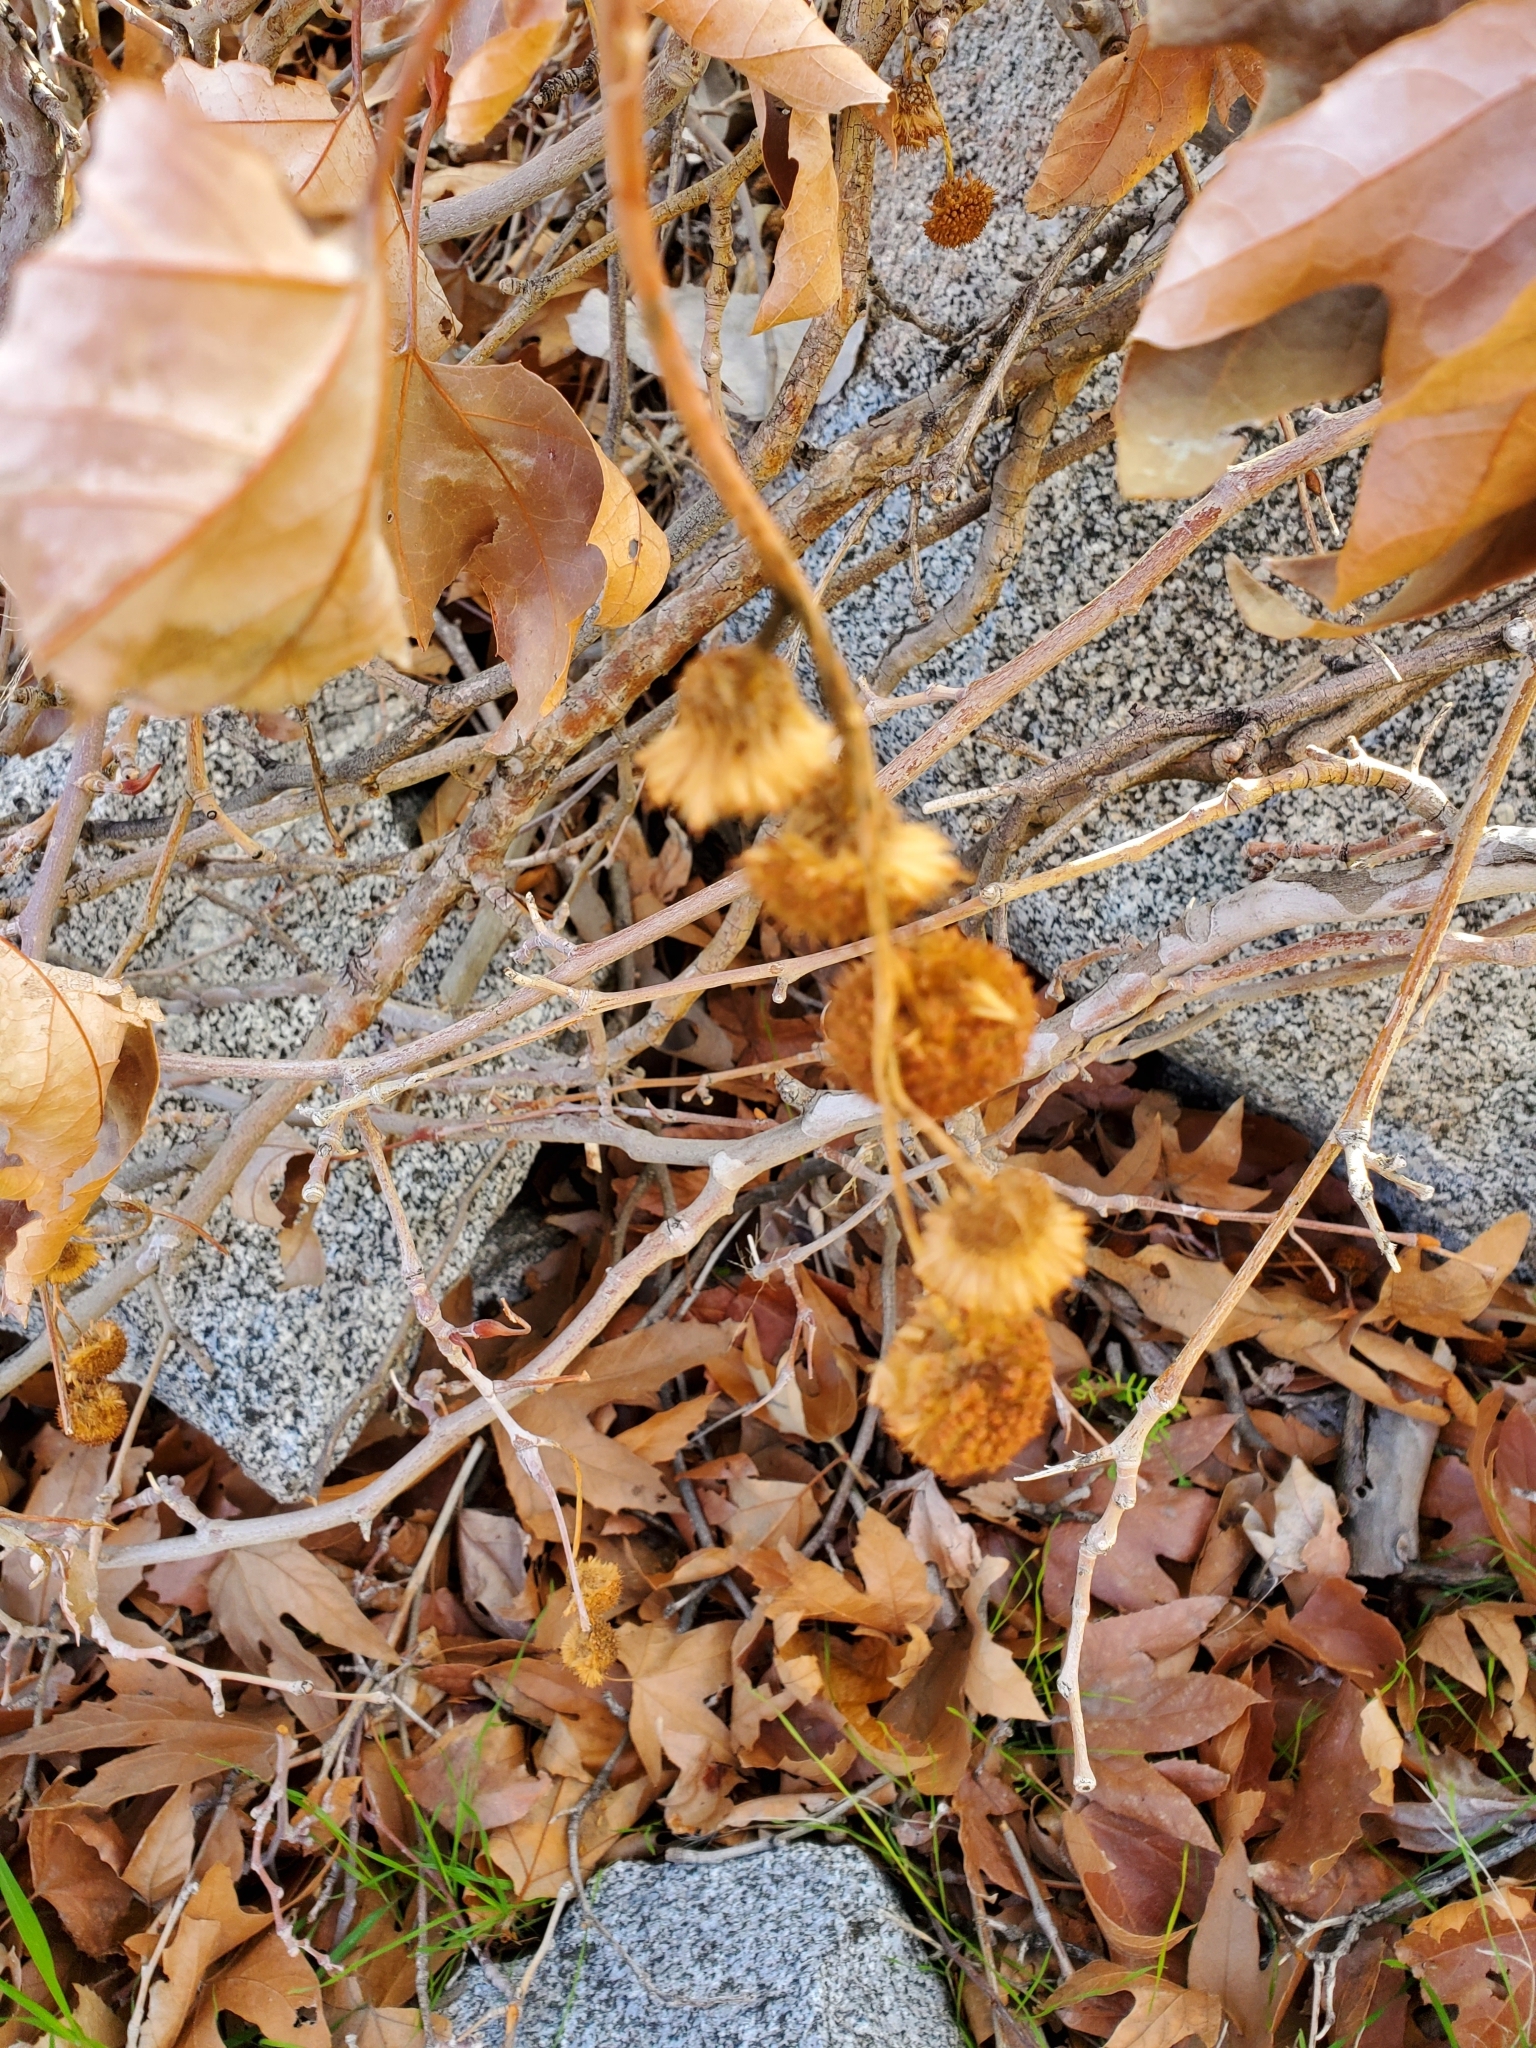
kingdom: Plantae
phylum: Tracheophyta
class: Magnoliopsida
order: Proteales
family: Platanaceae
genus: Platanus
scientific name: Platanus racemosa
